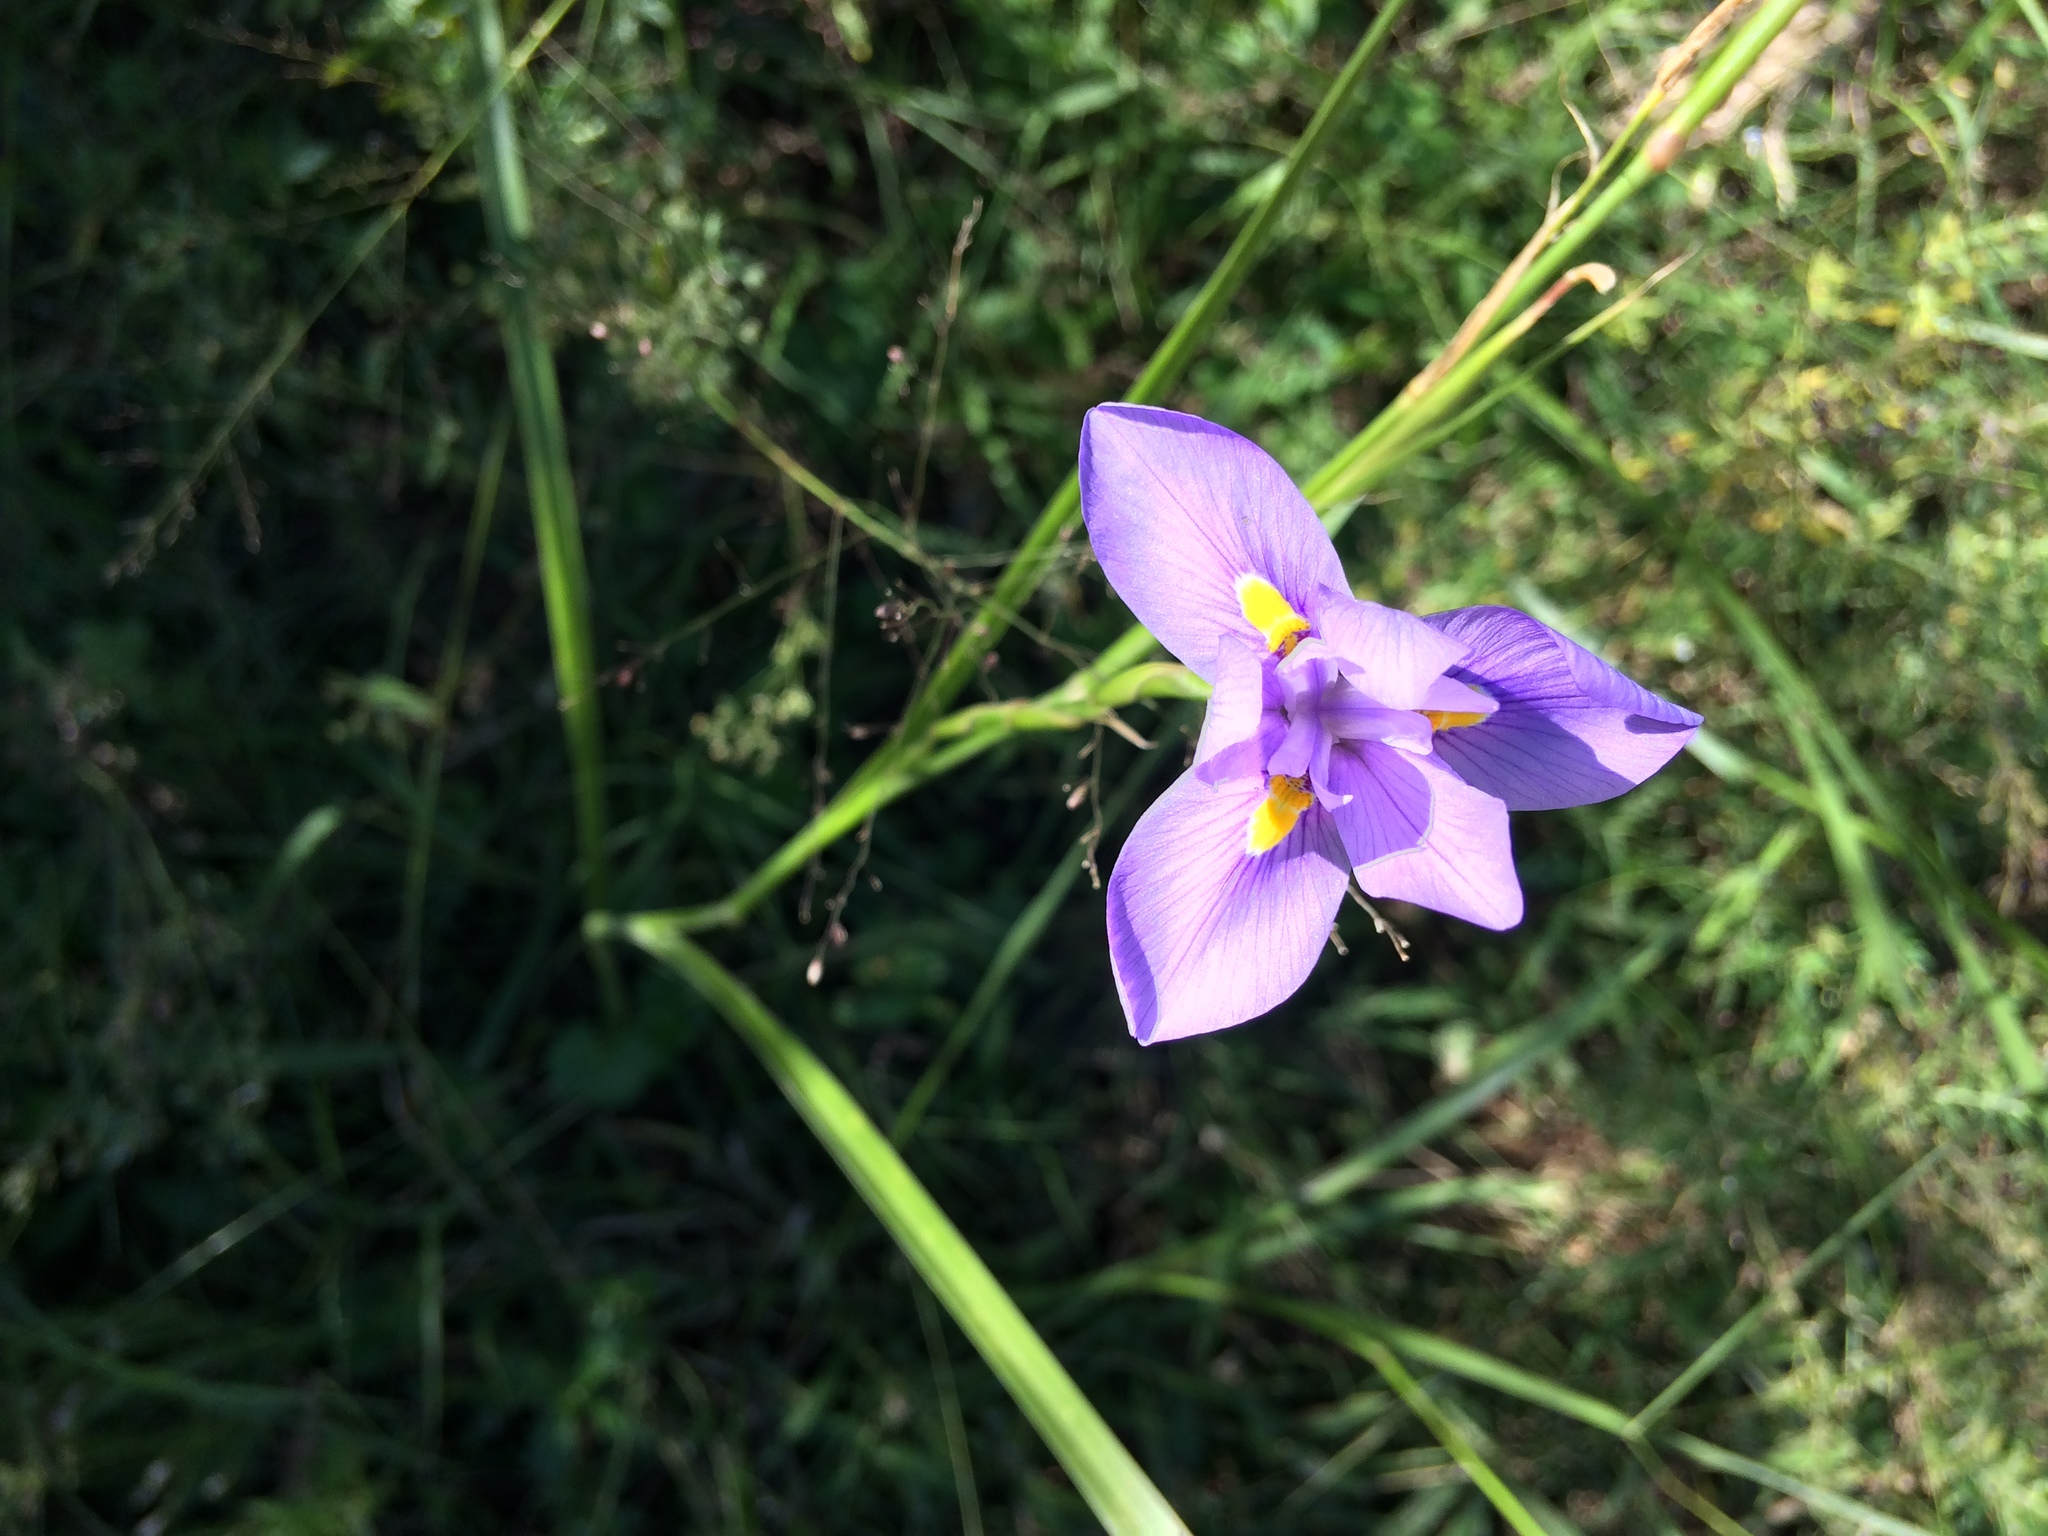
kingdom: Plantae
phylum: Tracheophyta
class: Liliopsida
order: Asparagales
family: Iridaceae
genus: Moraea
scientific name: Moraea polystachya
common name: Blue-tulip
